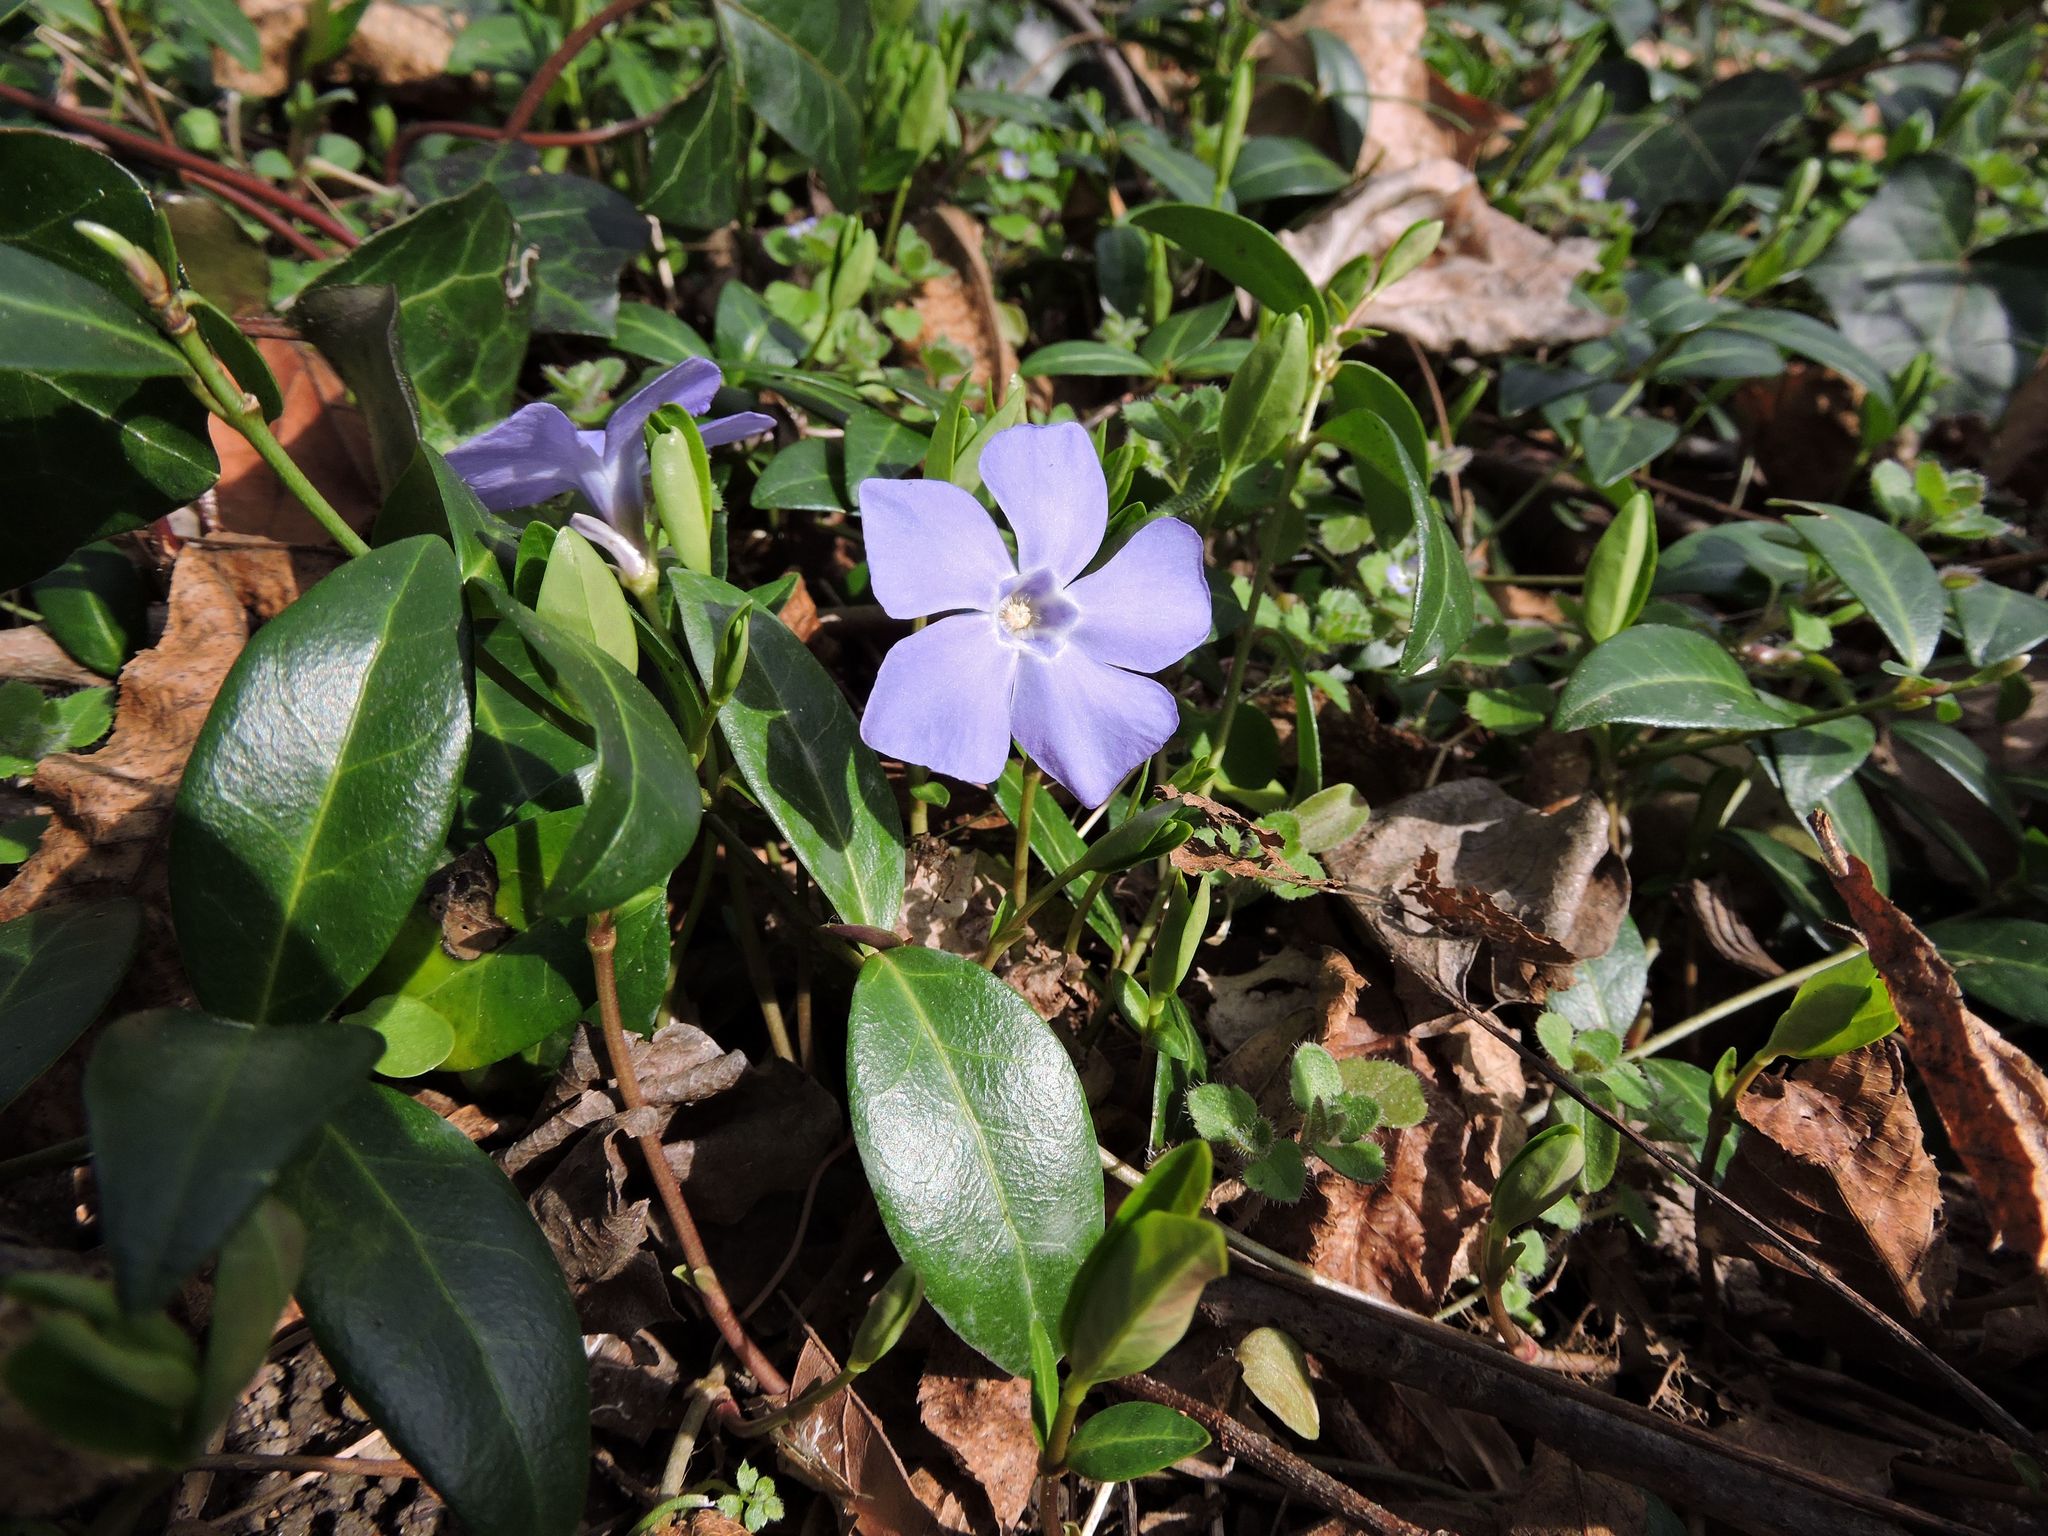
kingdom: Plantae
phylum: Tracheophyta
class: Magnoliopsida
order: Gentianales
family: Apocynaceae
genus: Vinca
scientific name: Vinca minor
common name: Lesser periwinkle
